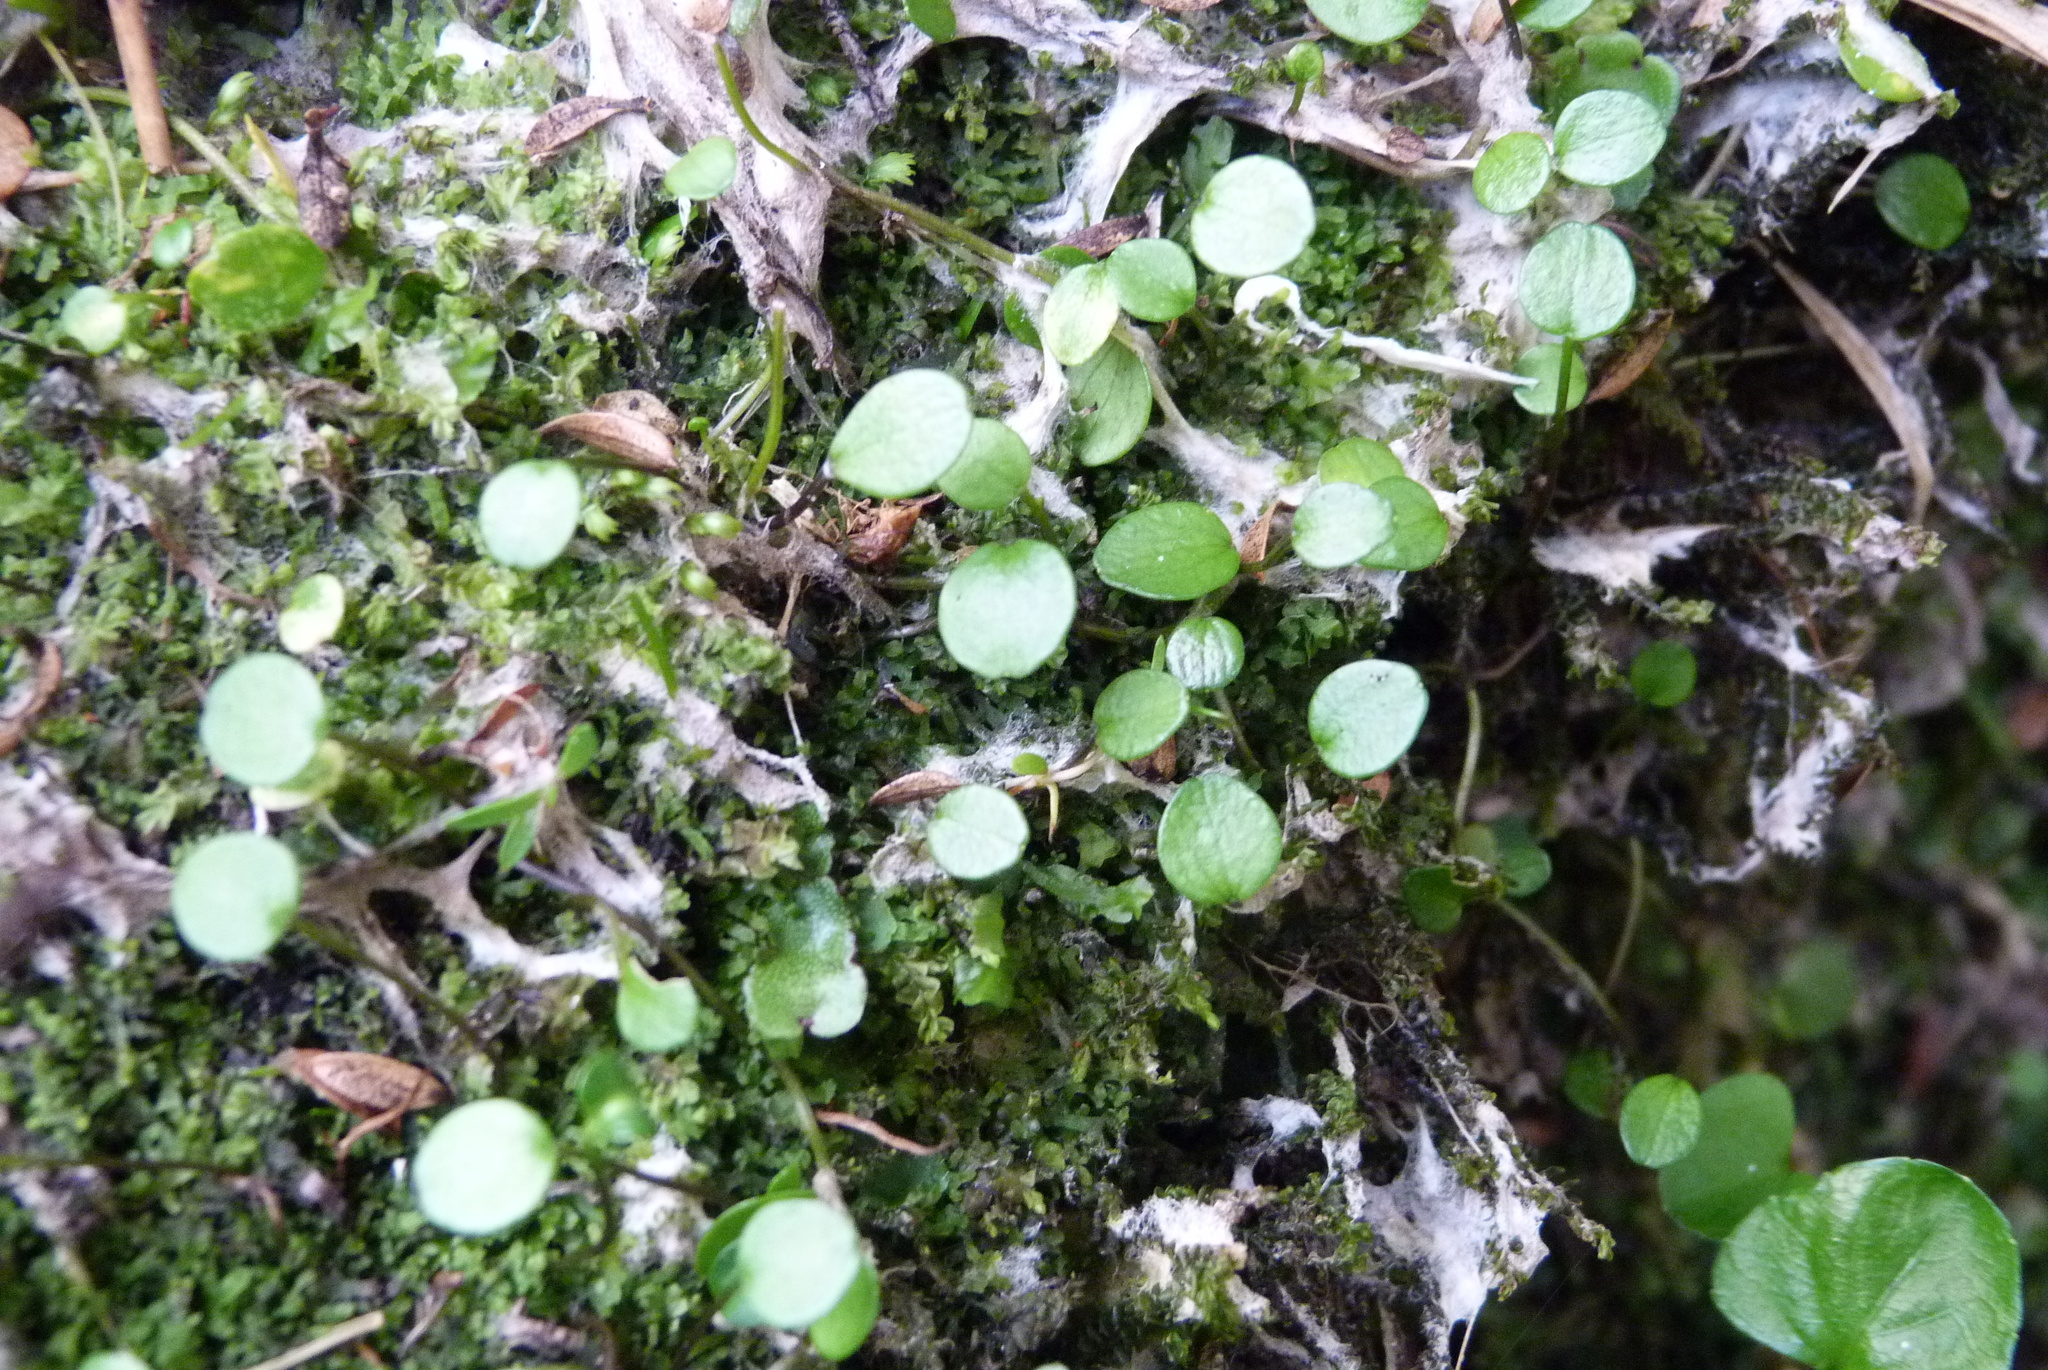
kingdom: Plantae
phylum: Tracheophyta
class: Magnoliopsida
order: Apiales
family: Apiaceae
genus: Azorella
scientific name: Azorella cockaynei
